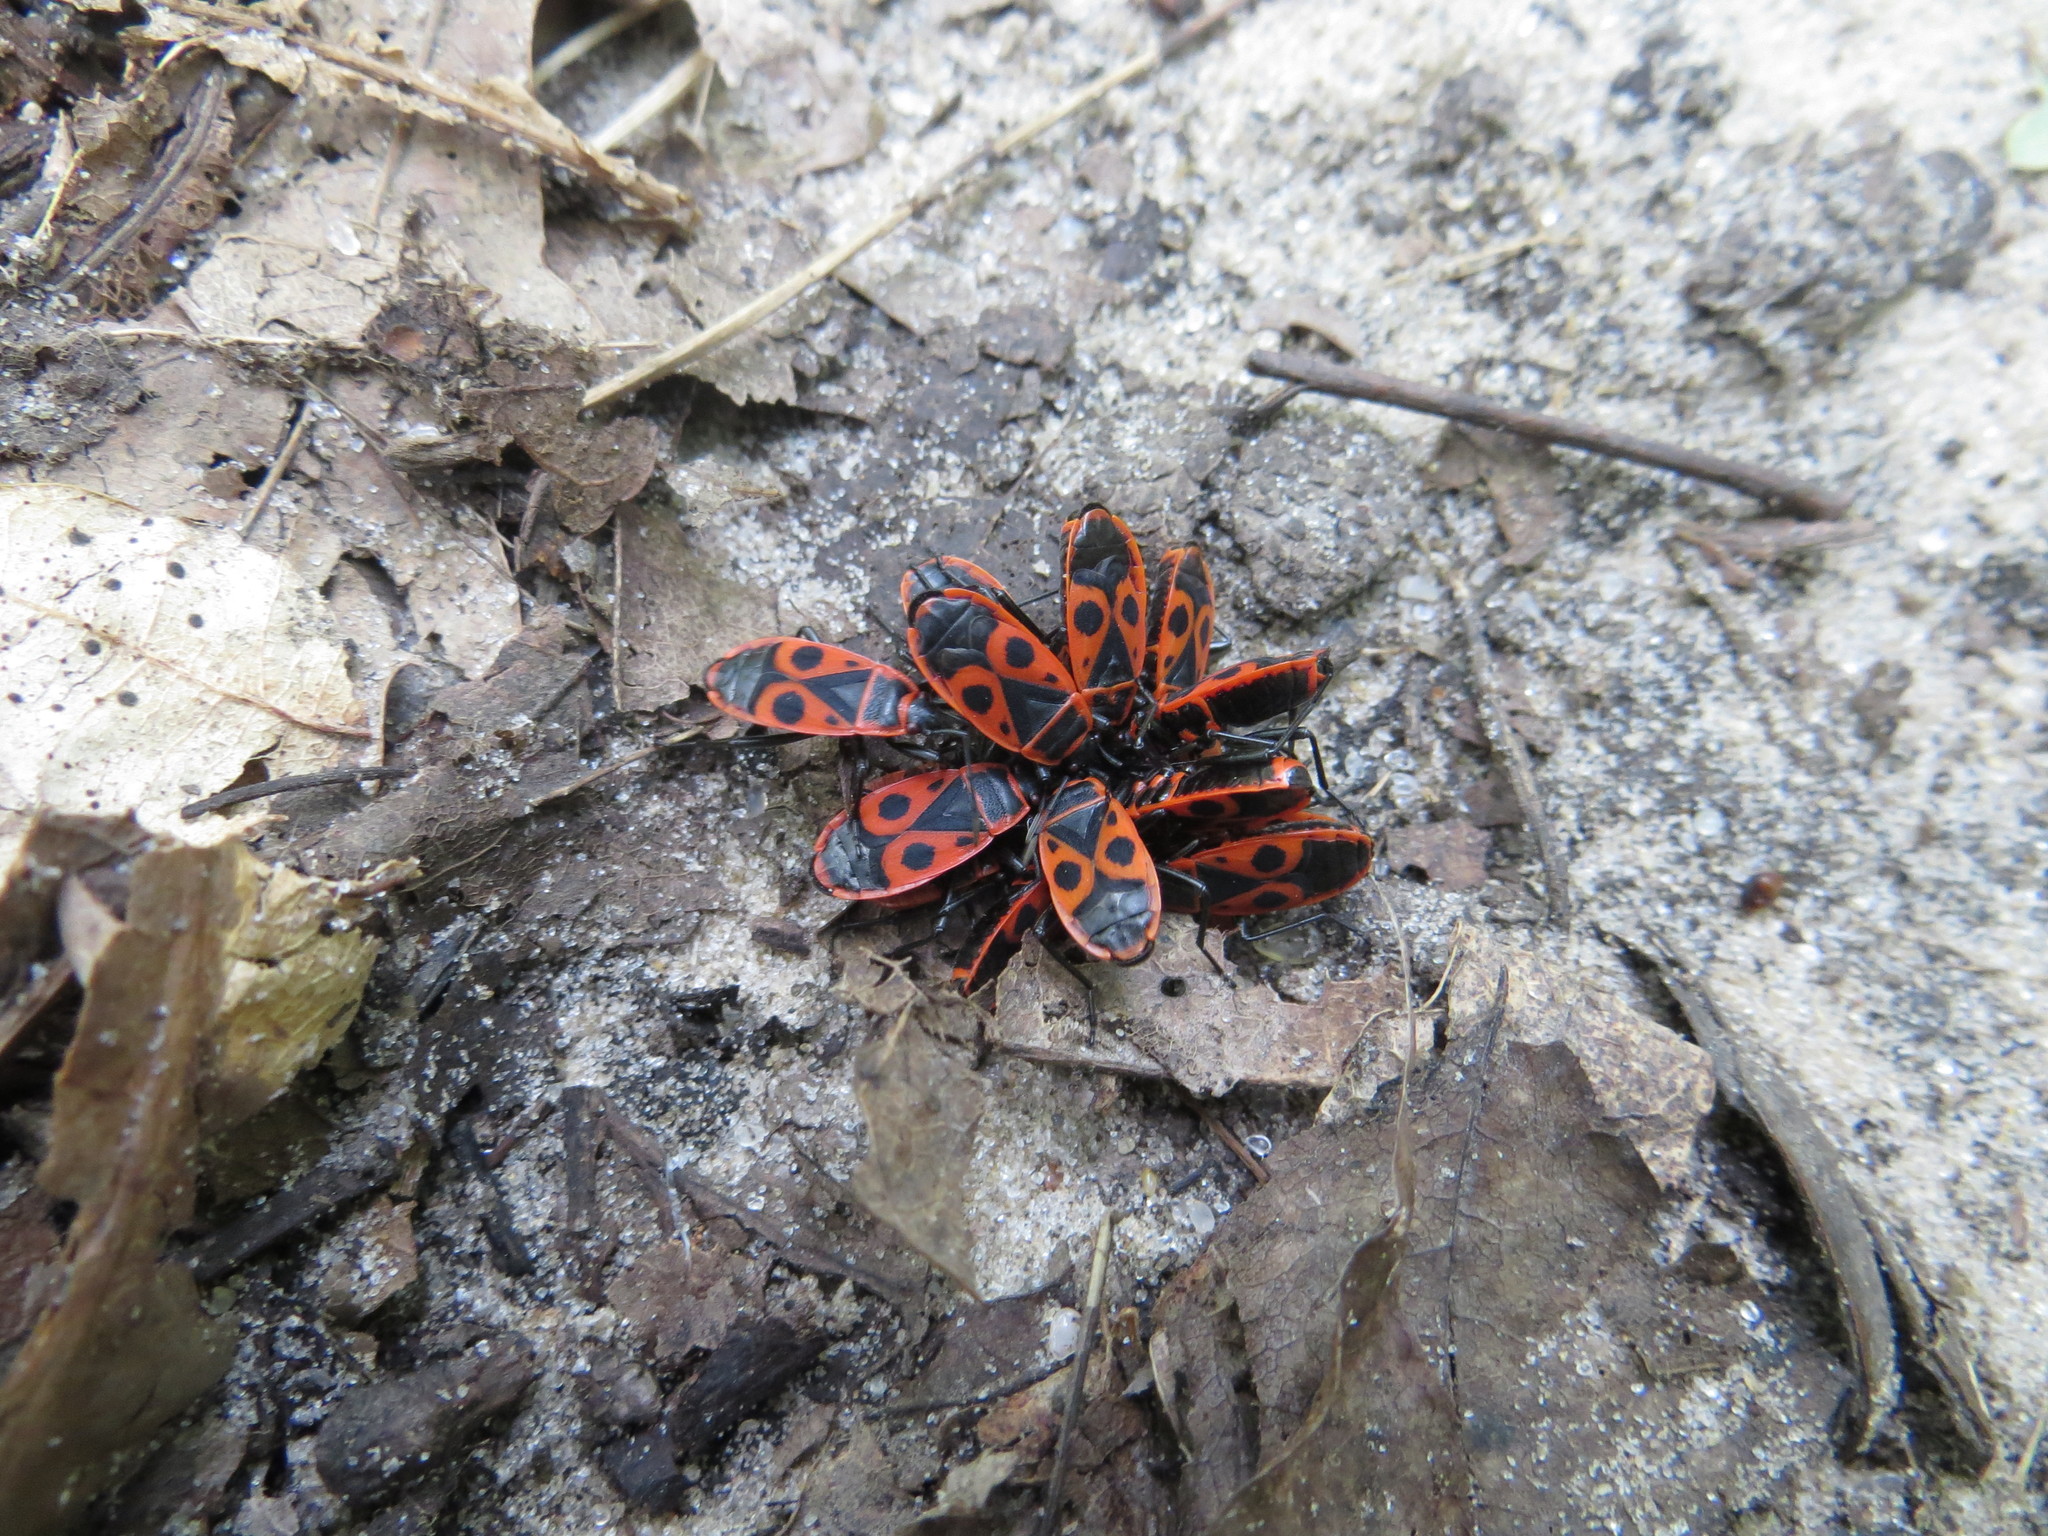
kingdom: Animalia
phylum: Arthropoda
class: Insecta
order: Hemiptera
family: Pyrrhocoridae
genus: Pyrrhocoris
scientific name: Pyrrhocoris apterus
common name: Firebug
